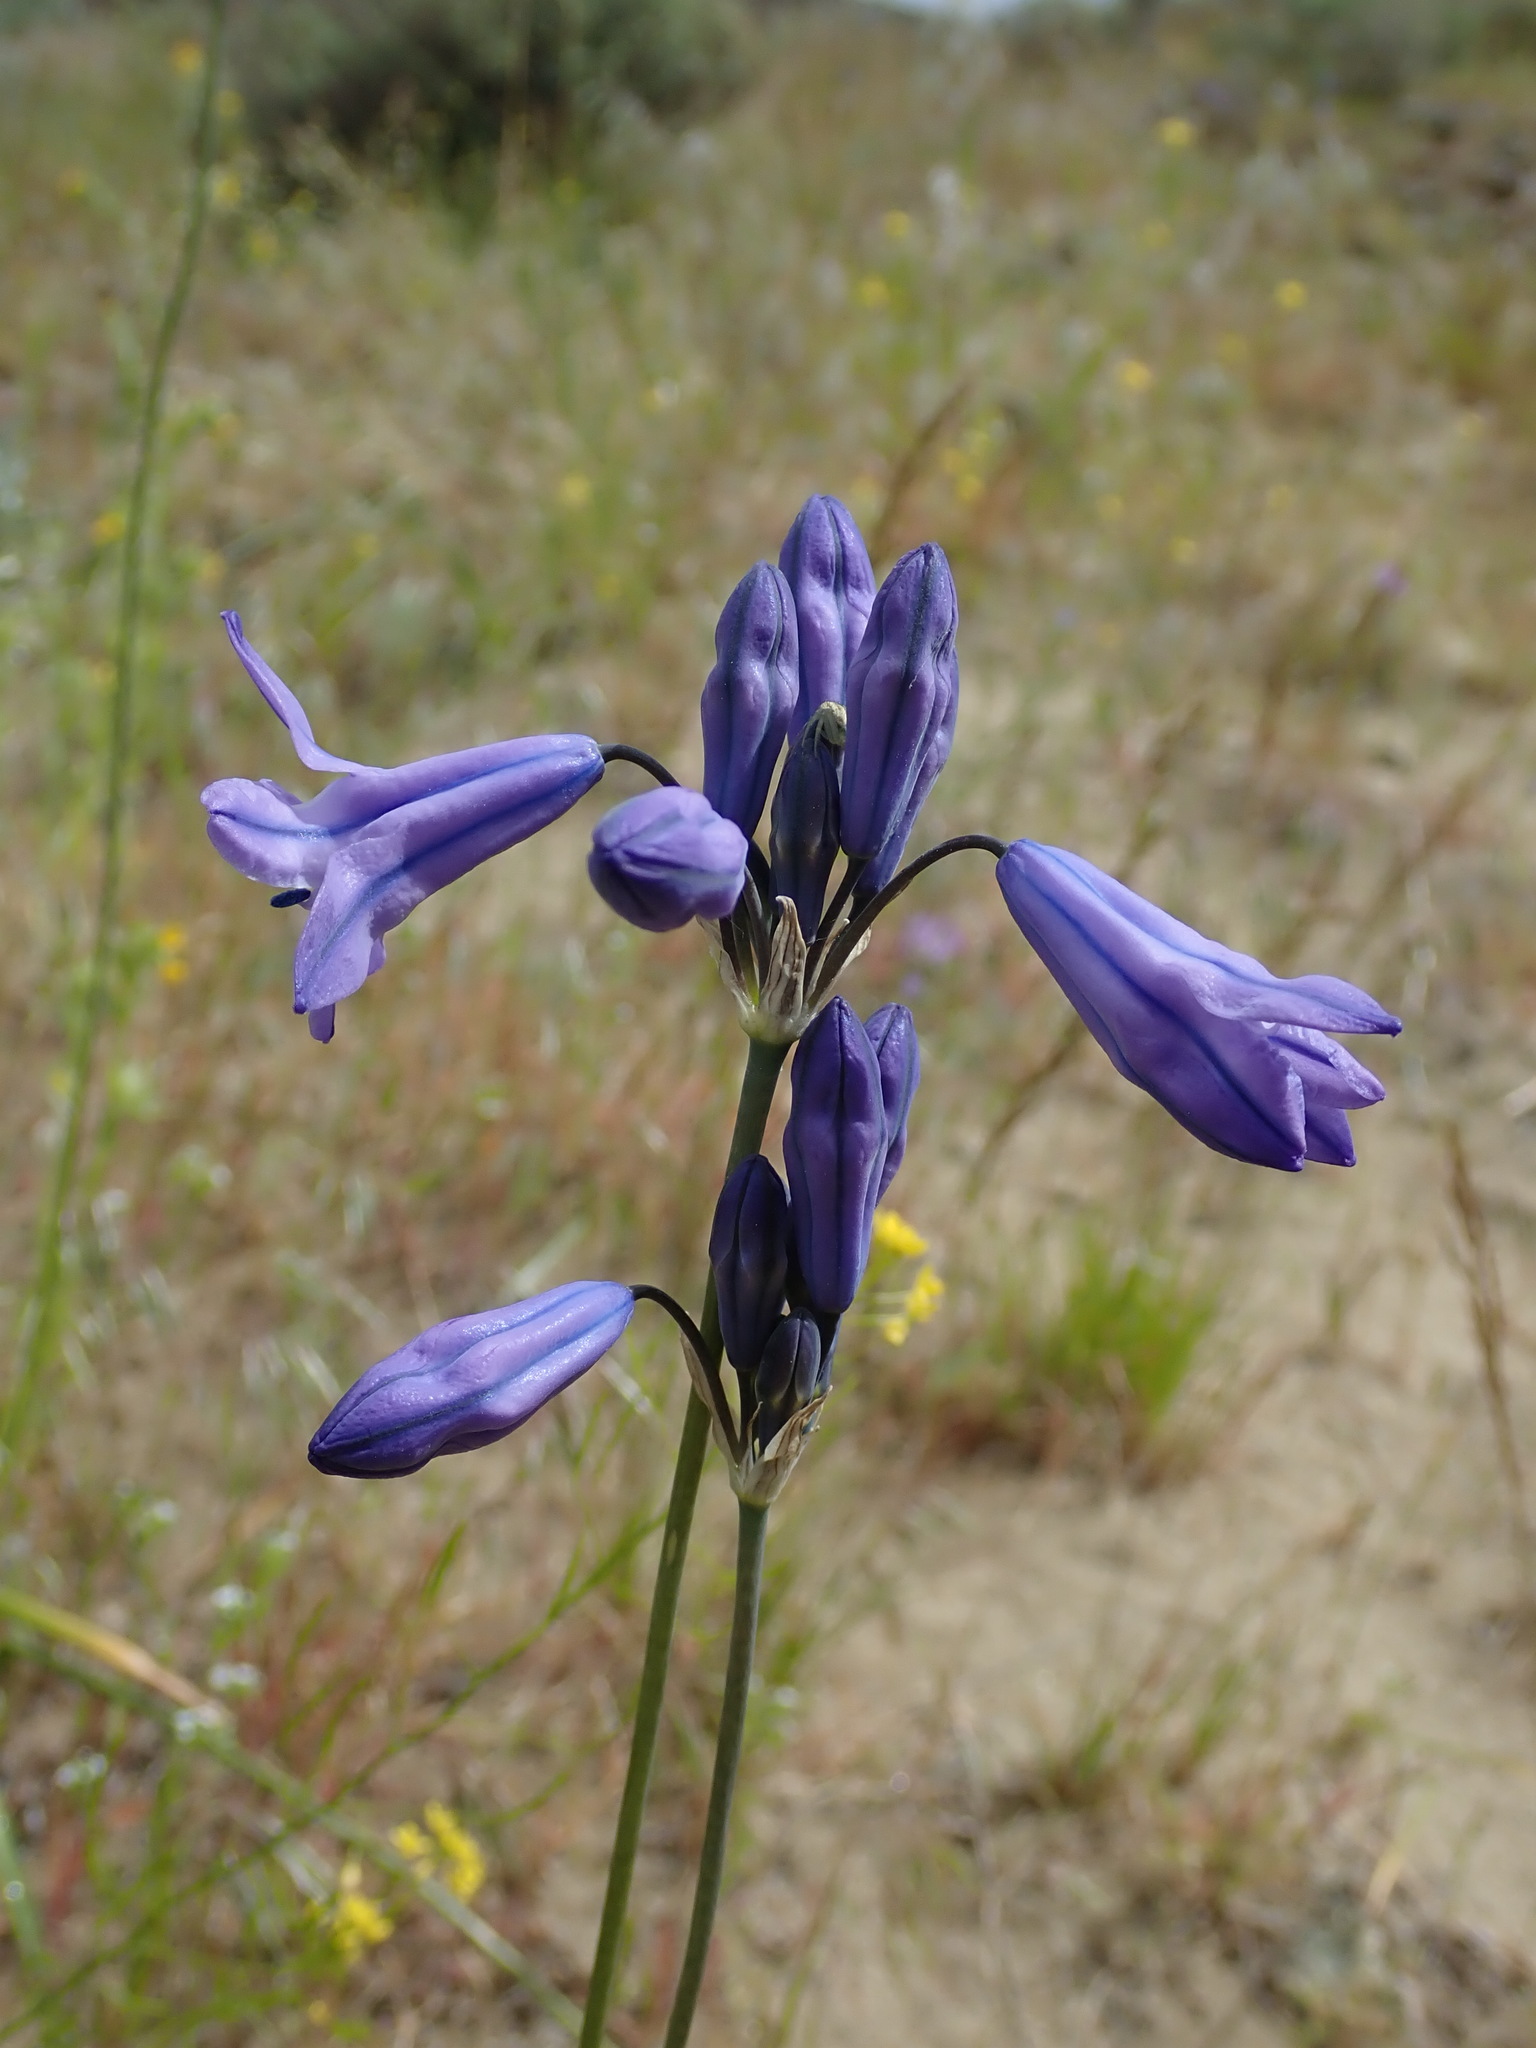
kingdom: Plantae
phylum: Tracheophyta
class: Liliopsida
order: Asparagales
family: Asparagaceae
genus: Triteleia
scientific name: Triteleia grandiflora
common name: Wild hyacinth
